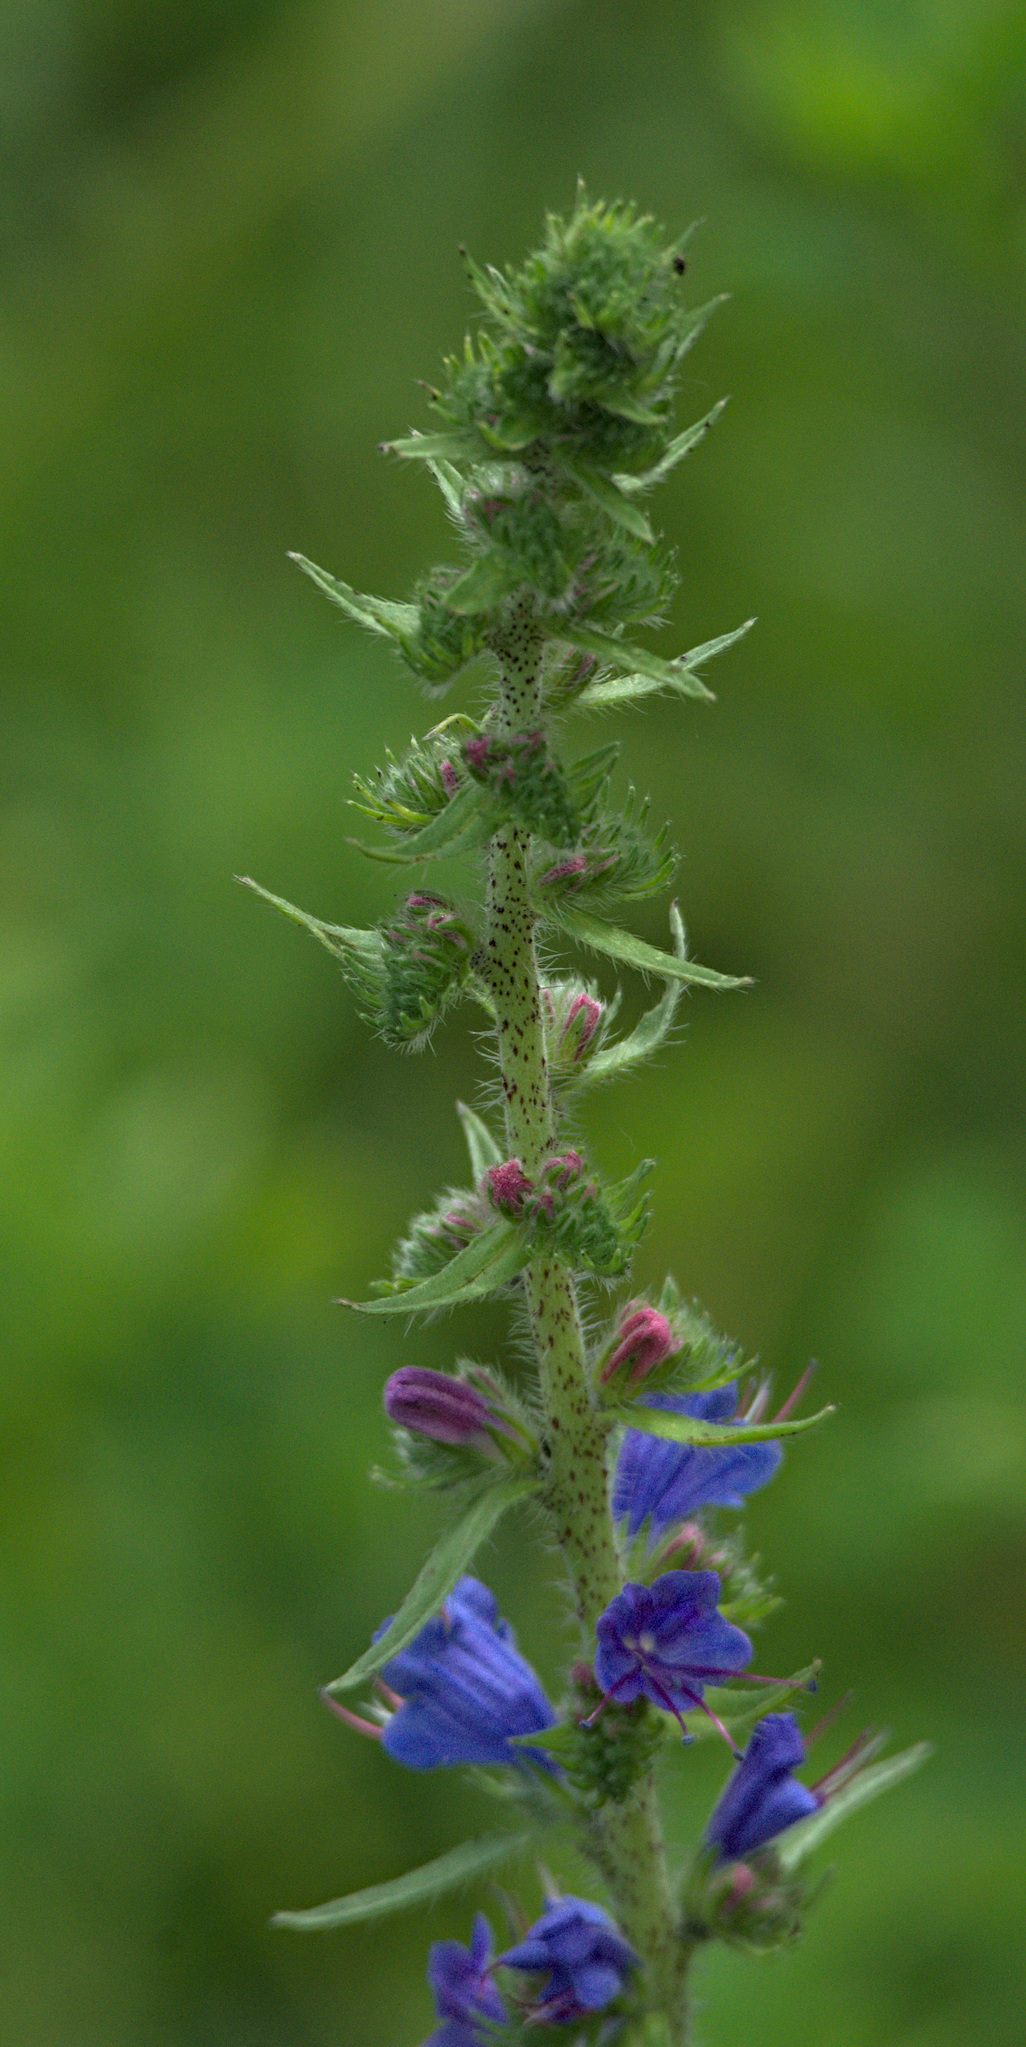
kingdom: Plantae
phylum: Tracheophyta
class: Magnoliopsida
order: Boraginales
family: Boraginaceae
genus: Echium
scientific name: Echium vulgare
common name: Common viper's bugloss
